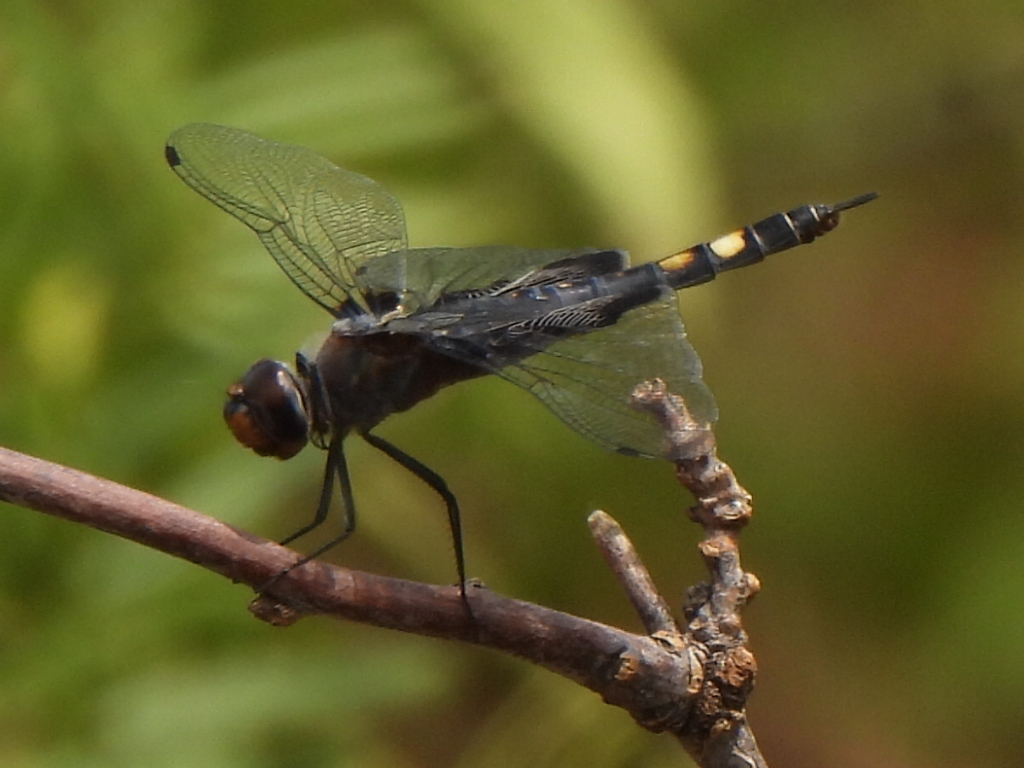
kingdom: Animalia
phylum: Arthropoda
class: Insecta
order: Odonata
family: Libellulidae
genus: Tramea
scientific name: Tramea lacerata
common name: Black saddlebags
